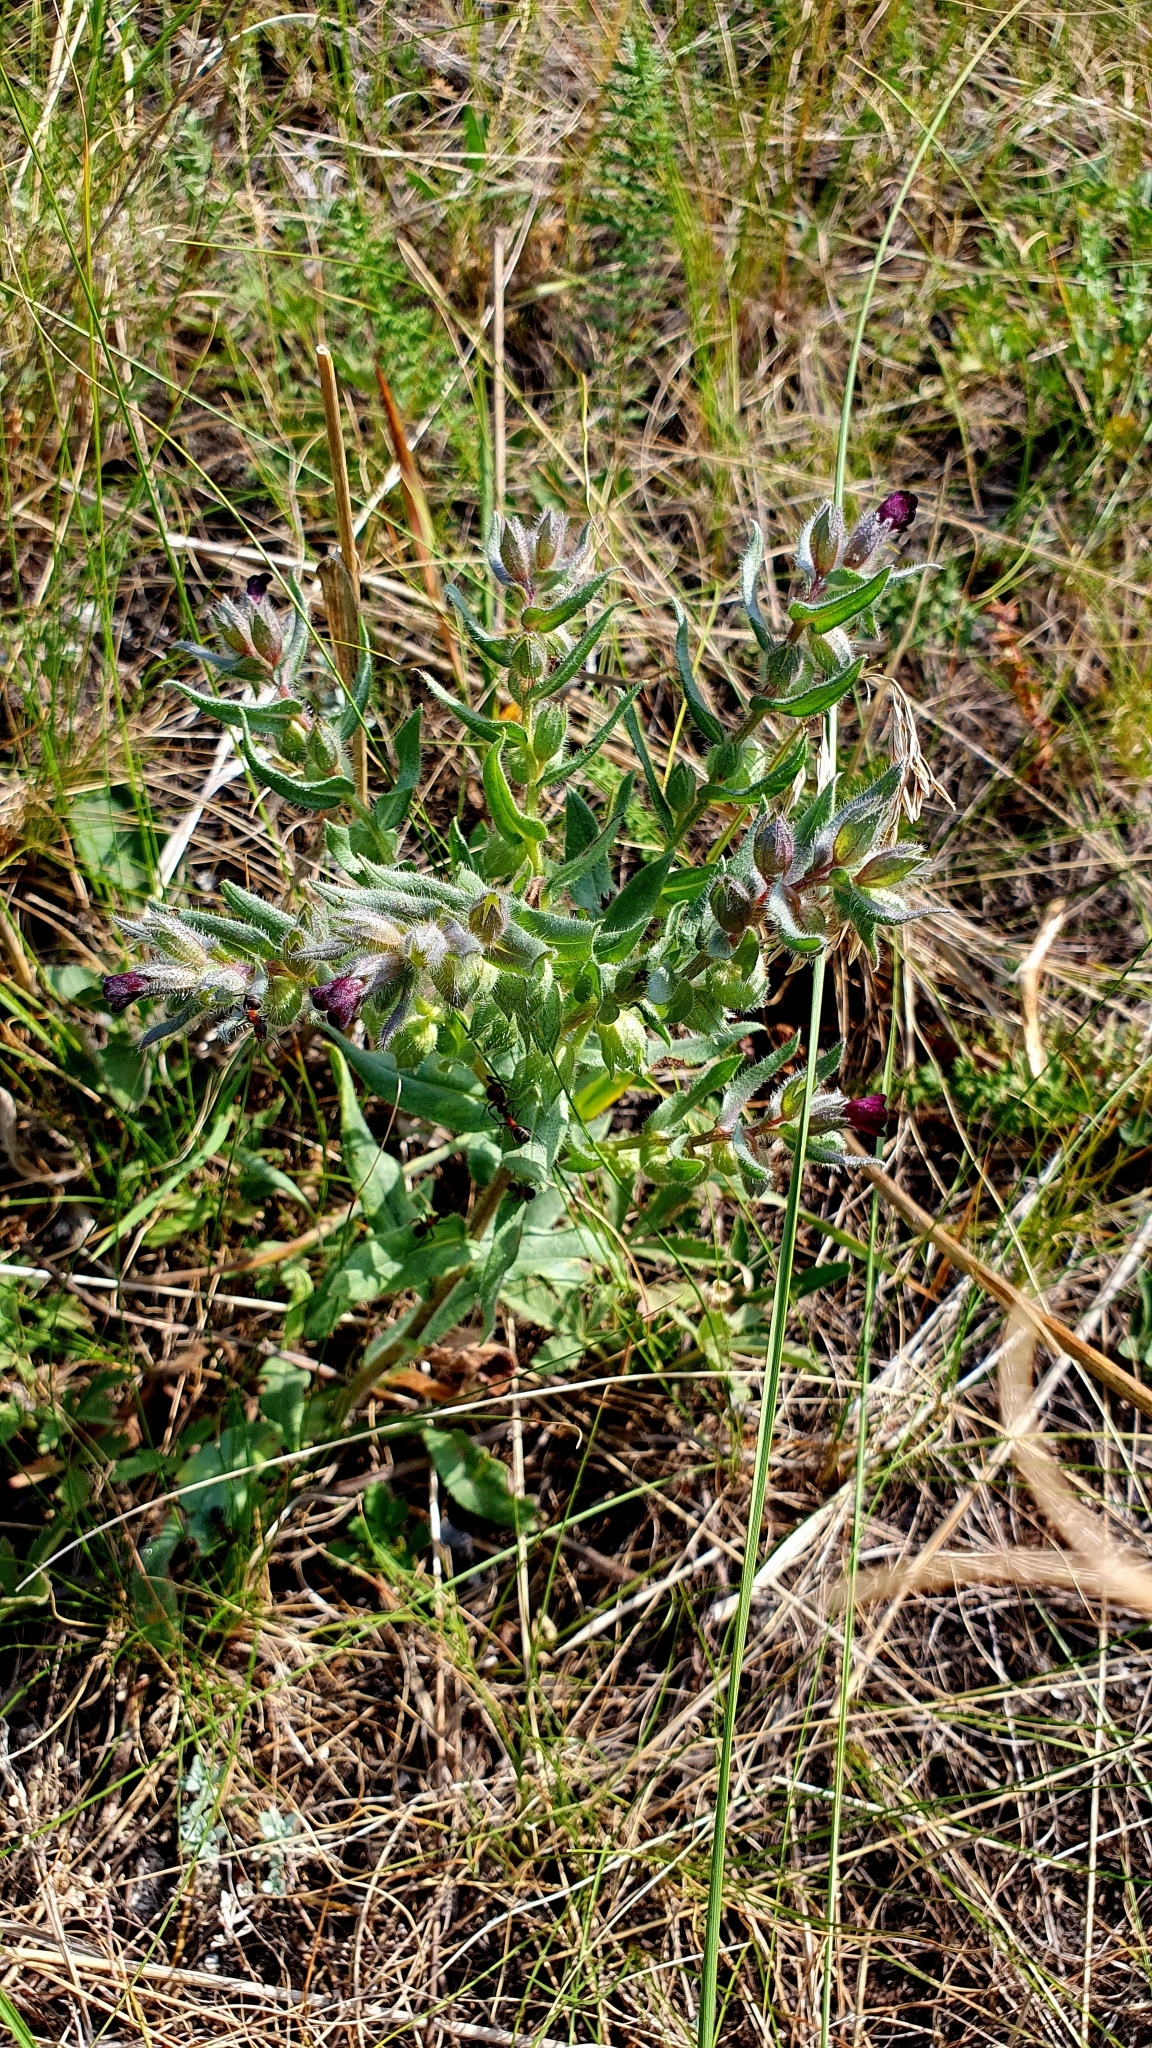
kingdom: Plantae
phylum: Tracheophyta
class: Magnoliopsida
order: Boraginales
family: Boraginaceae
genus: Nonea
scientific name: Nonea pulla
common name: Brown nonea
